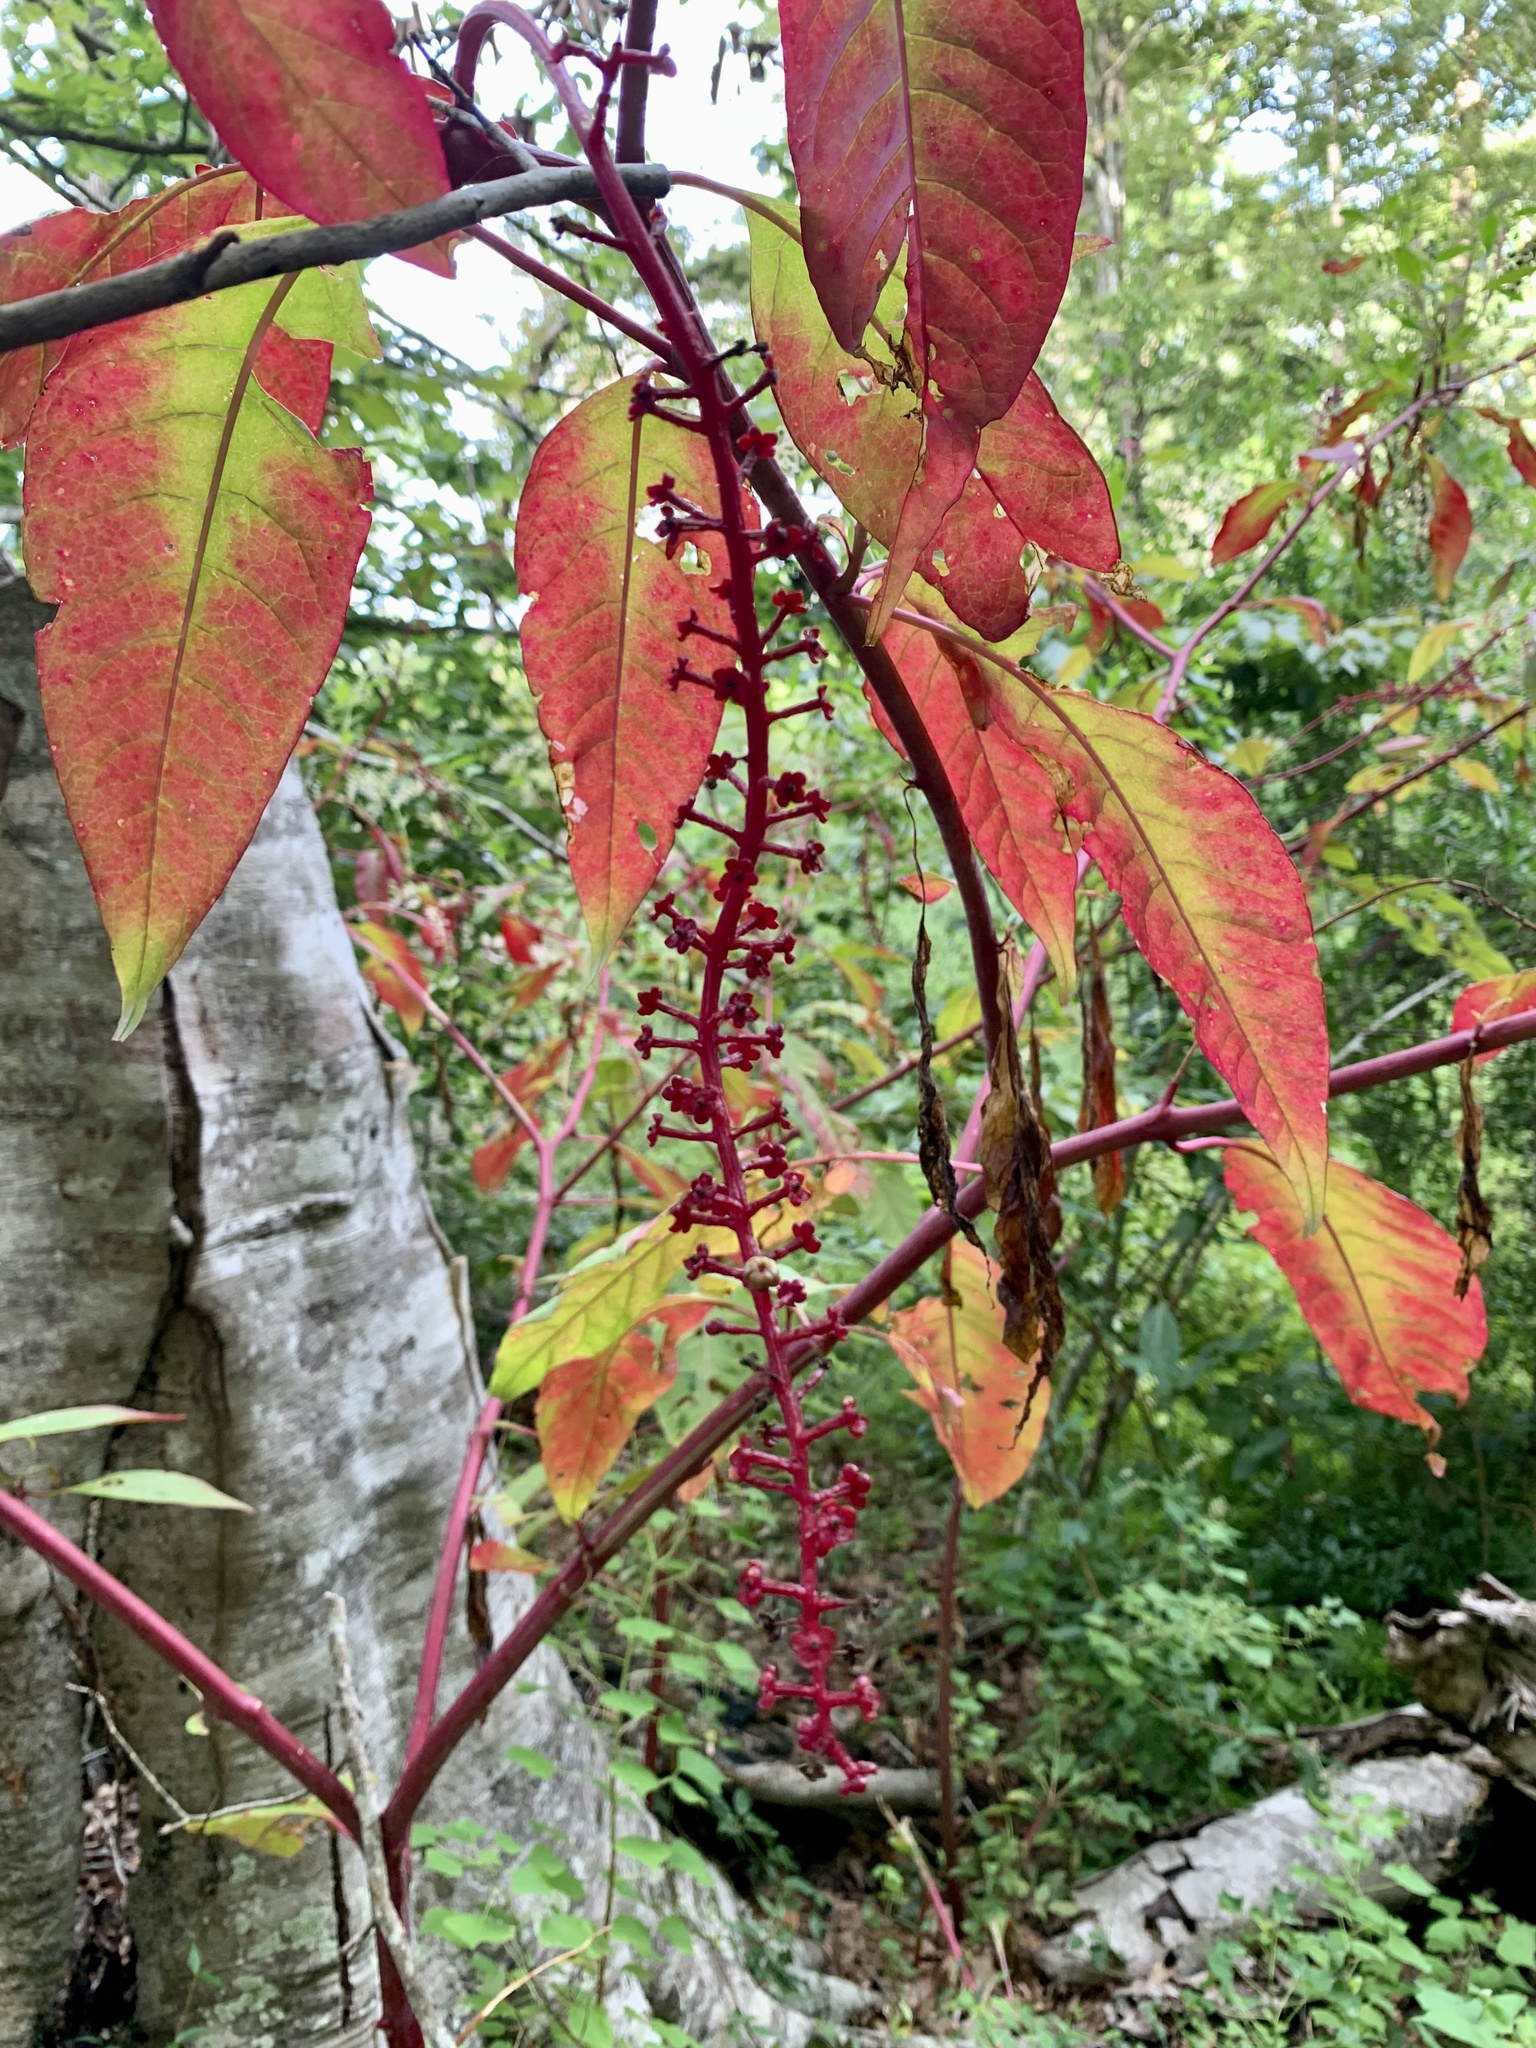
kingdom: Plantae
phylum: Tracheophyta
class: Magnoliopsida
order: Caryophyllales
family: Phytolaccaceae
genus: Phytolacca
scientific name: Phytolacca americana
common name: American pokeweed
